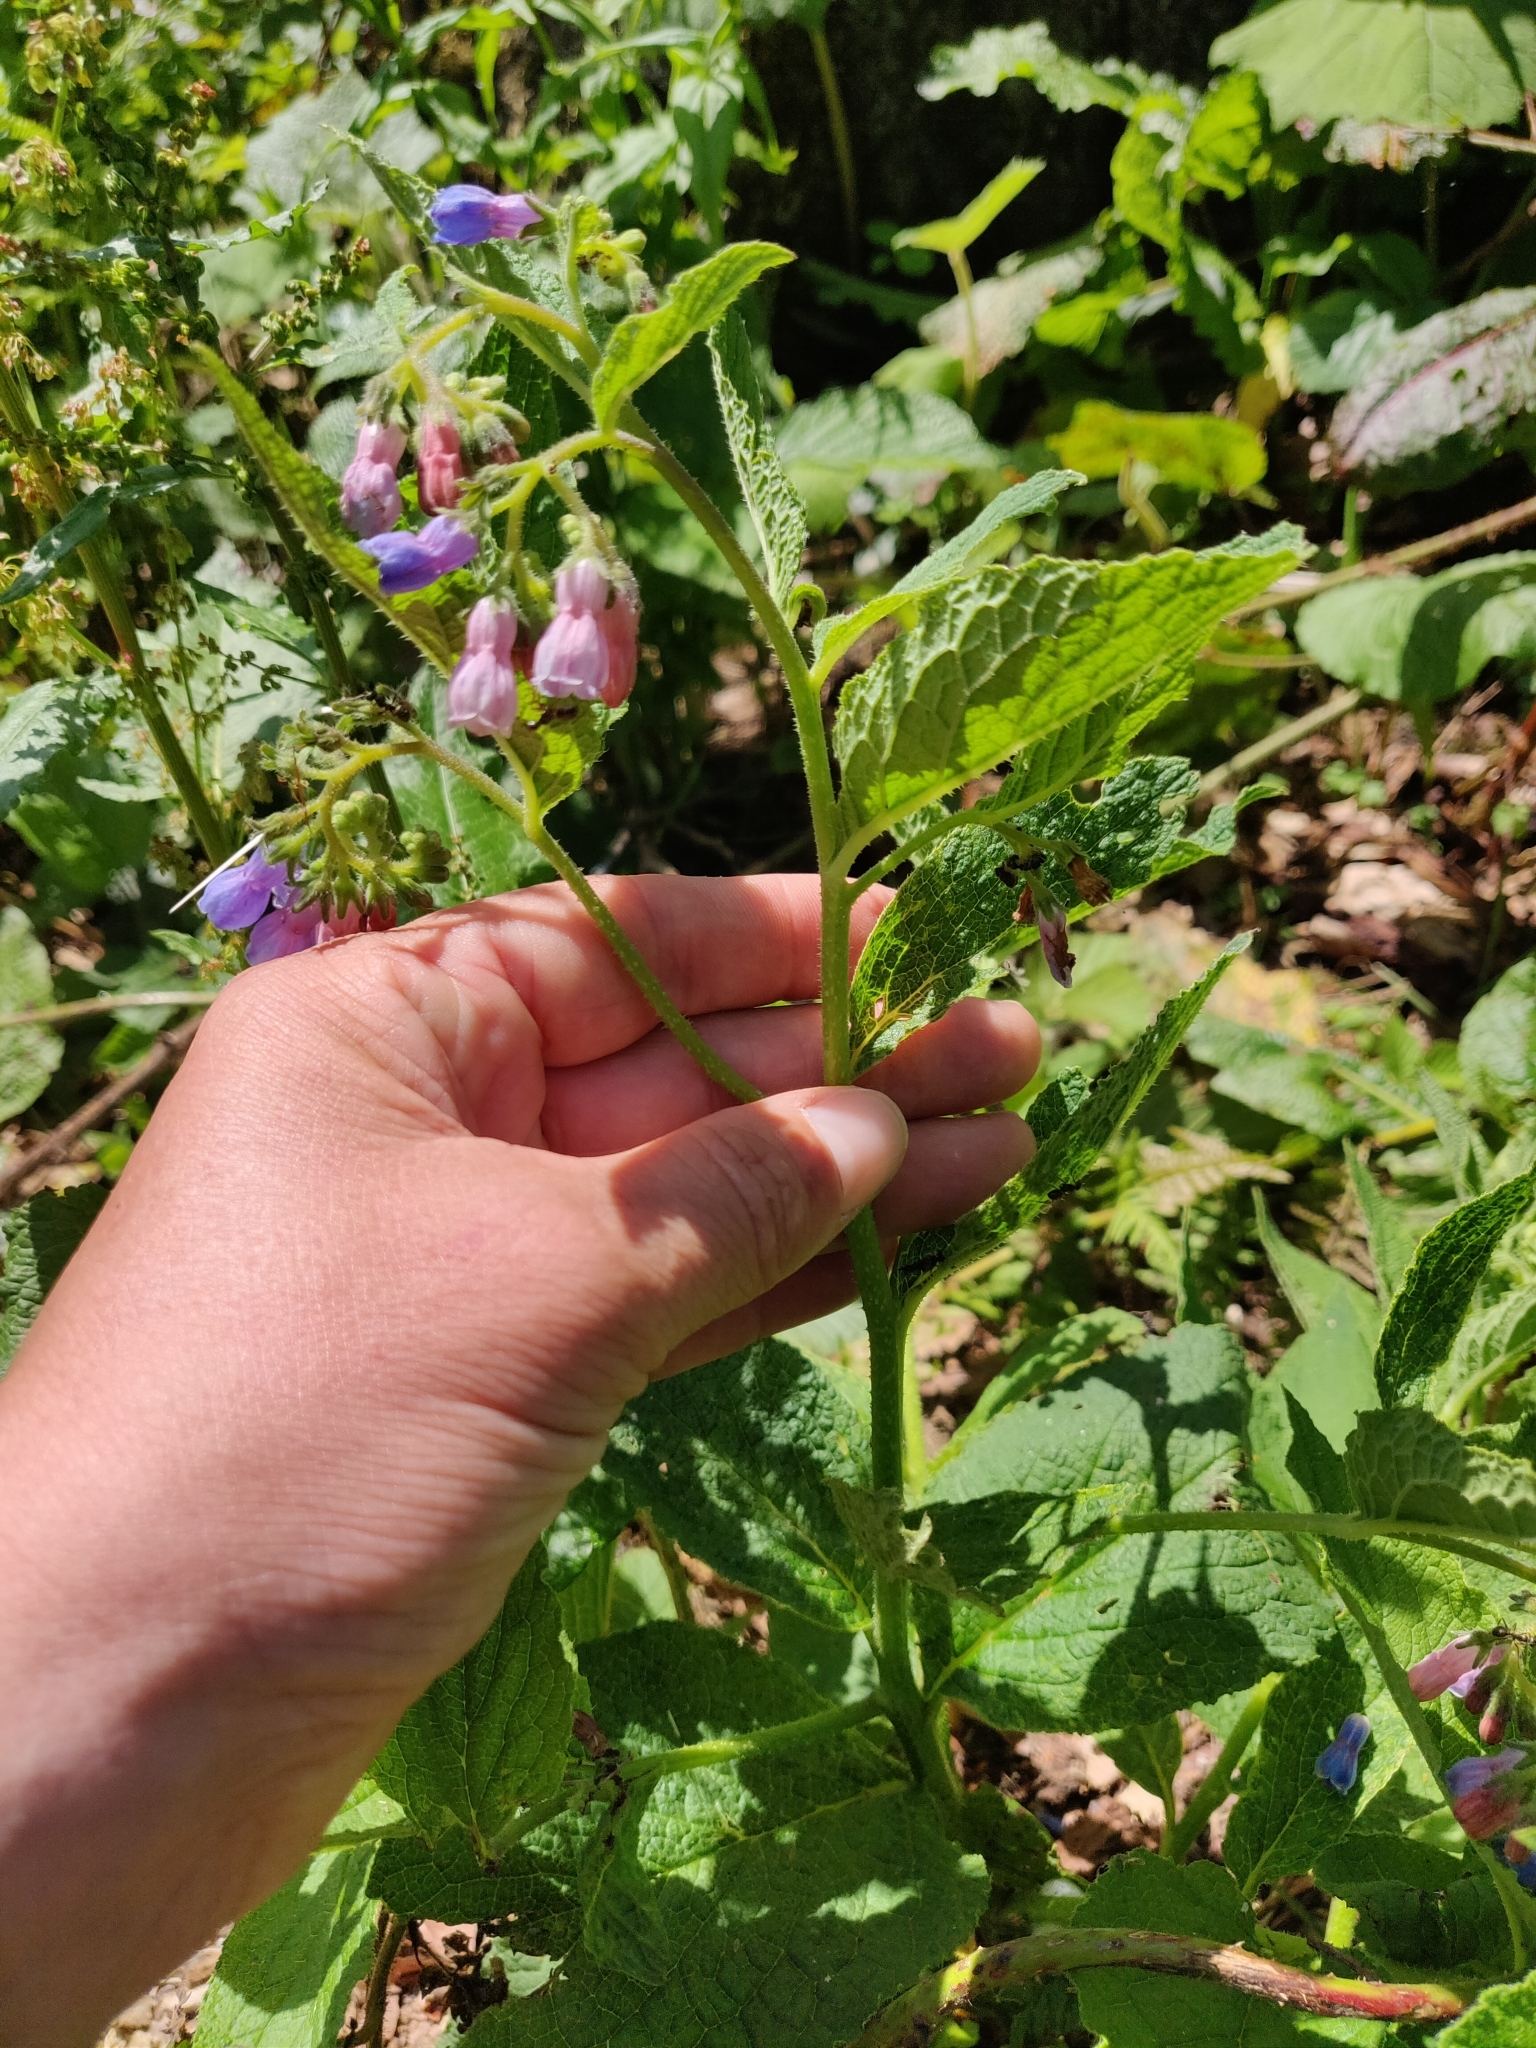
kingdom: Plantae
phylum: Tracheophyta
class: Magnoliopsida
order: Boraginales
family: Boraginaceae
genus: Symphytum
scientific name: Symphytum asperum
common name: Prickly comfrey
